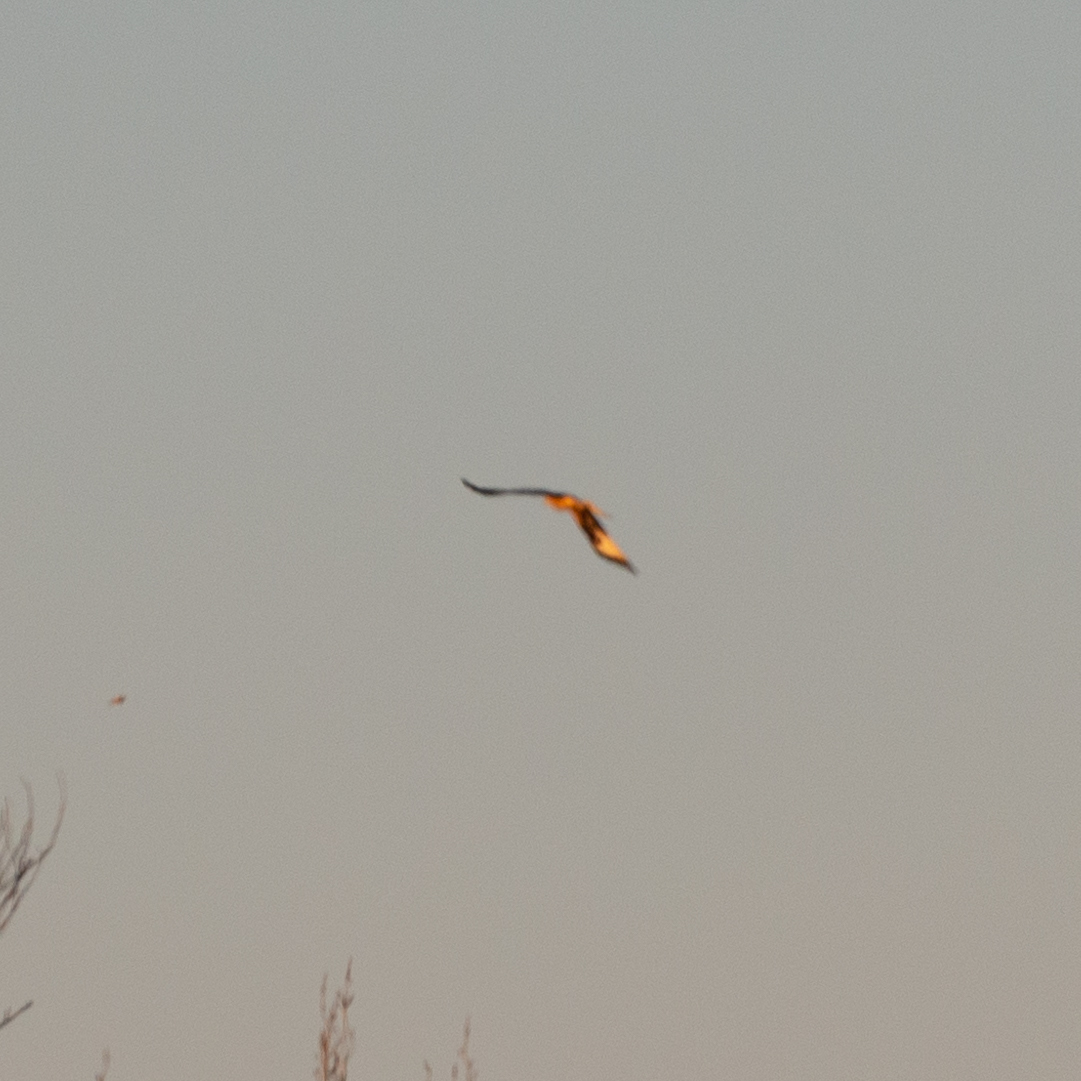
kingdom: Animalia
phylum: Chordata
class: Aves
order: Accipitriformes
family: Accipitridae
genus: Milvus
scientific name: Milvus milvus
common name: Red kite
